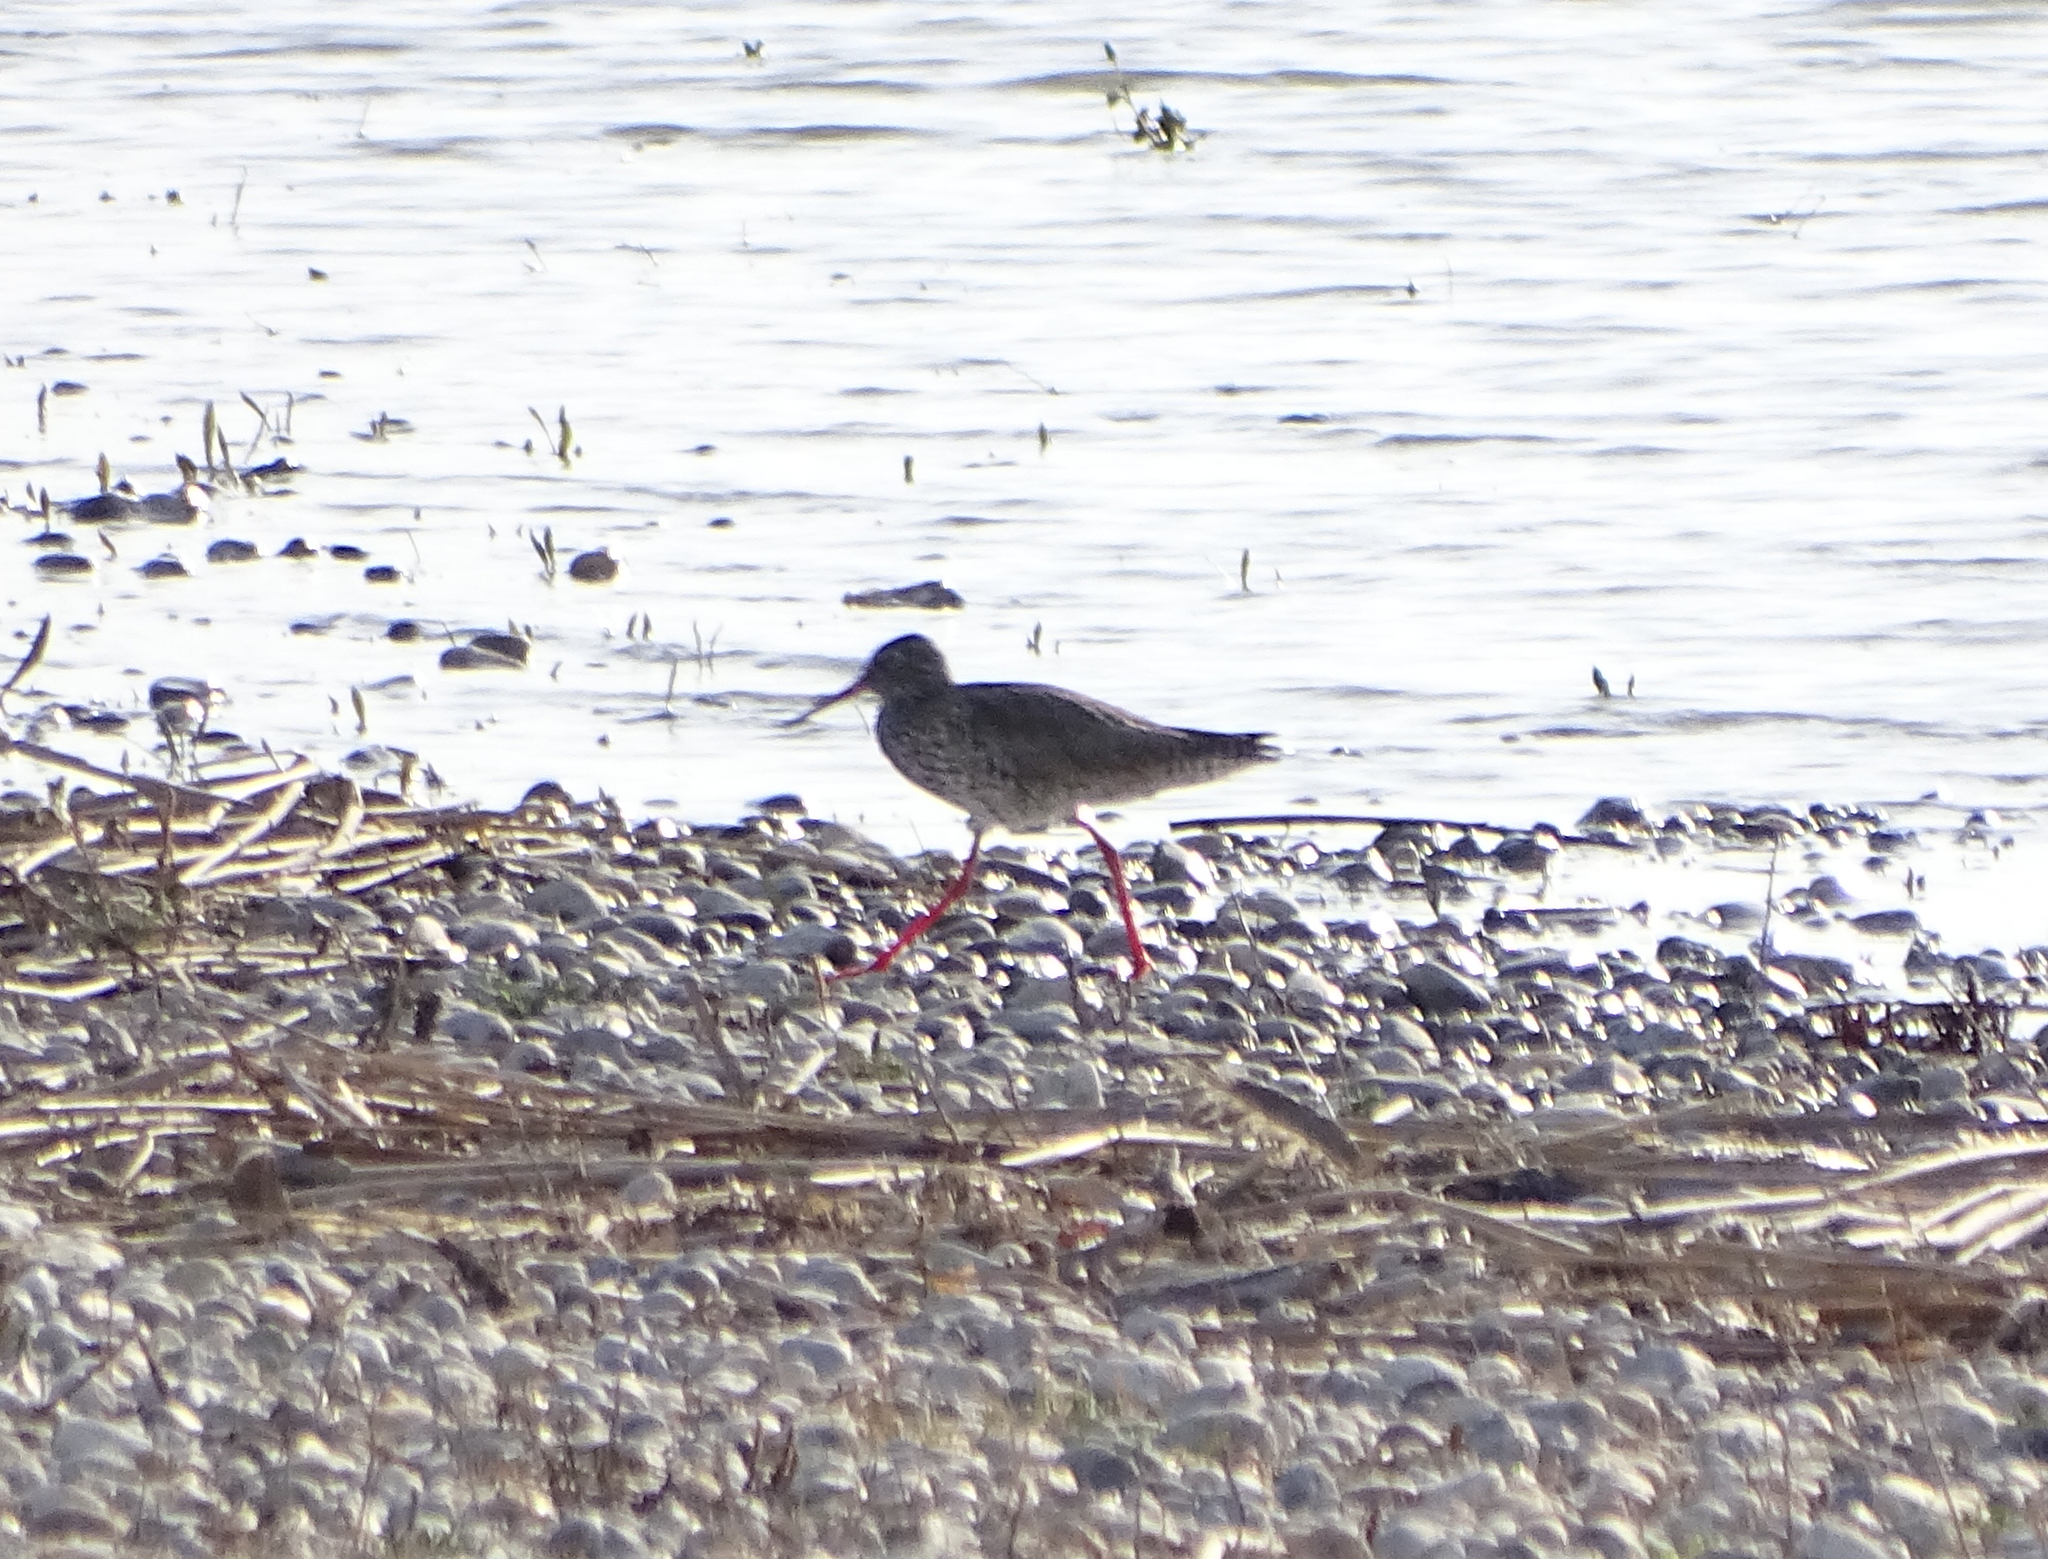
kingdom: Animalia
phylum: Chordata
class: Aves
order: Charadriiformes
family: Scolopacidae
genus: Tringa
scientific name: Tringa totanus
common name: Common redshank
